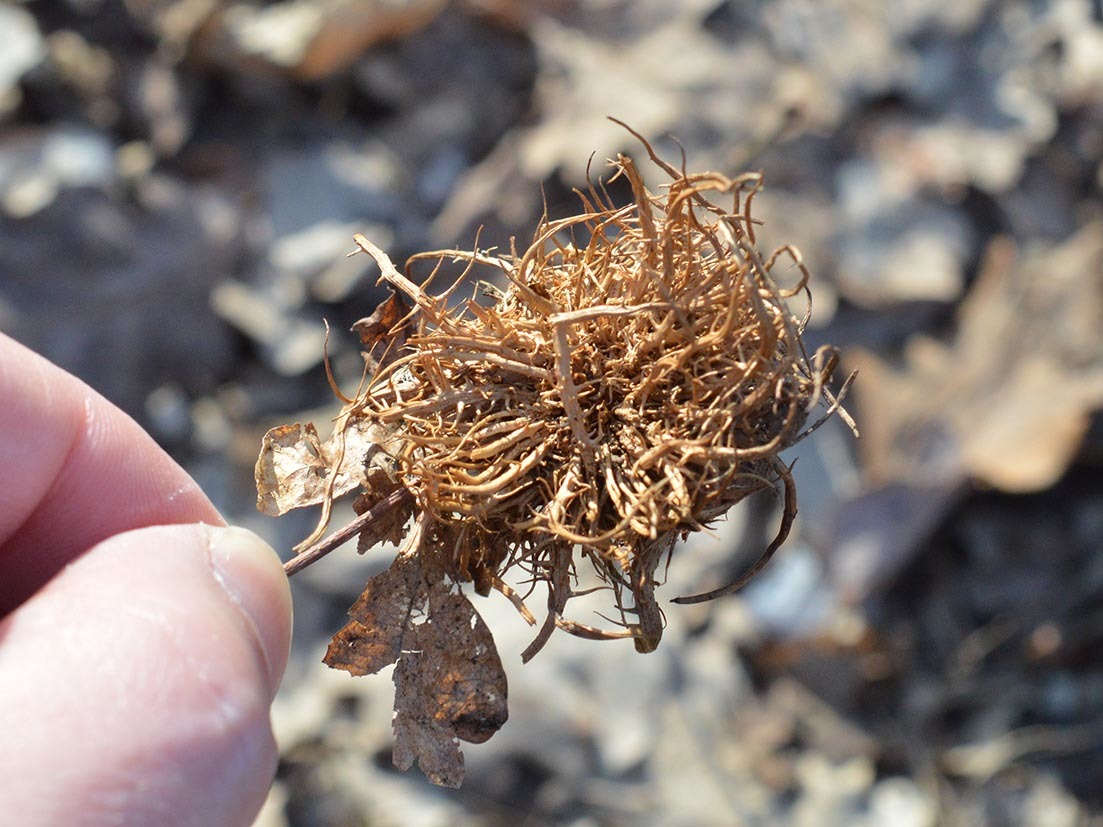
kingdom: Animalia
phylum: Arthropoda
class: Insecta
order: Hymenoptera
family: Cynipidae
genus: Andricus
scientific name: Andricus caputmedusae
